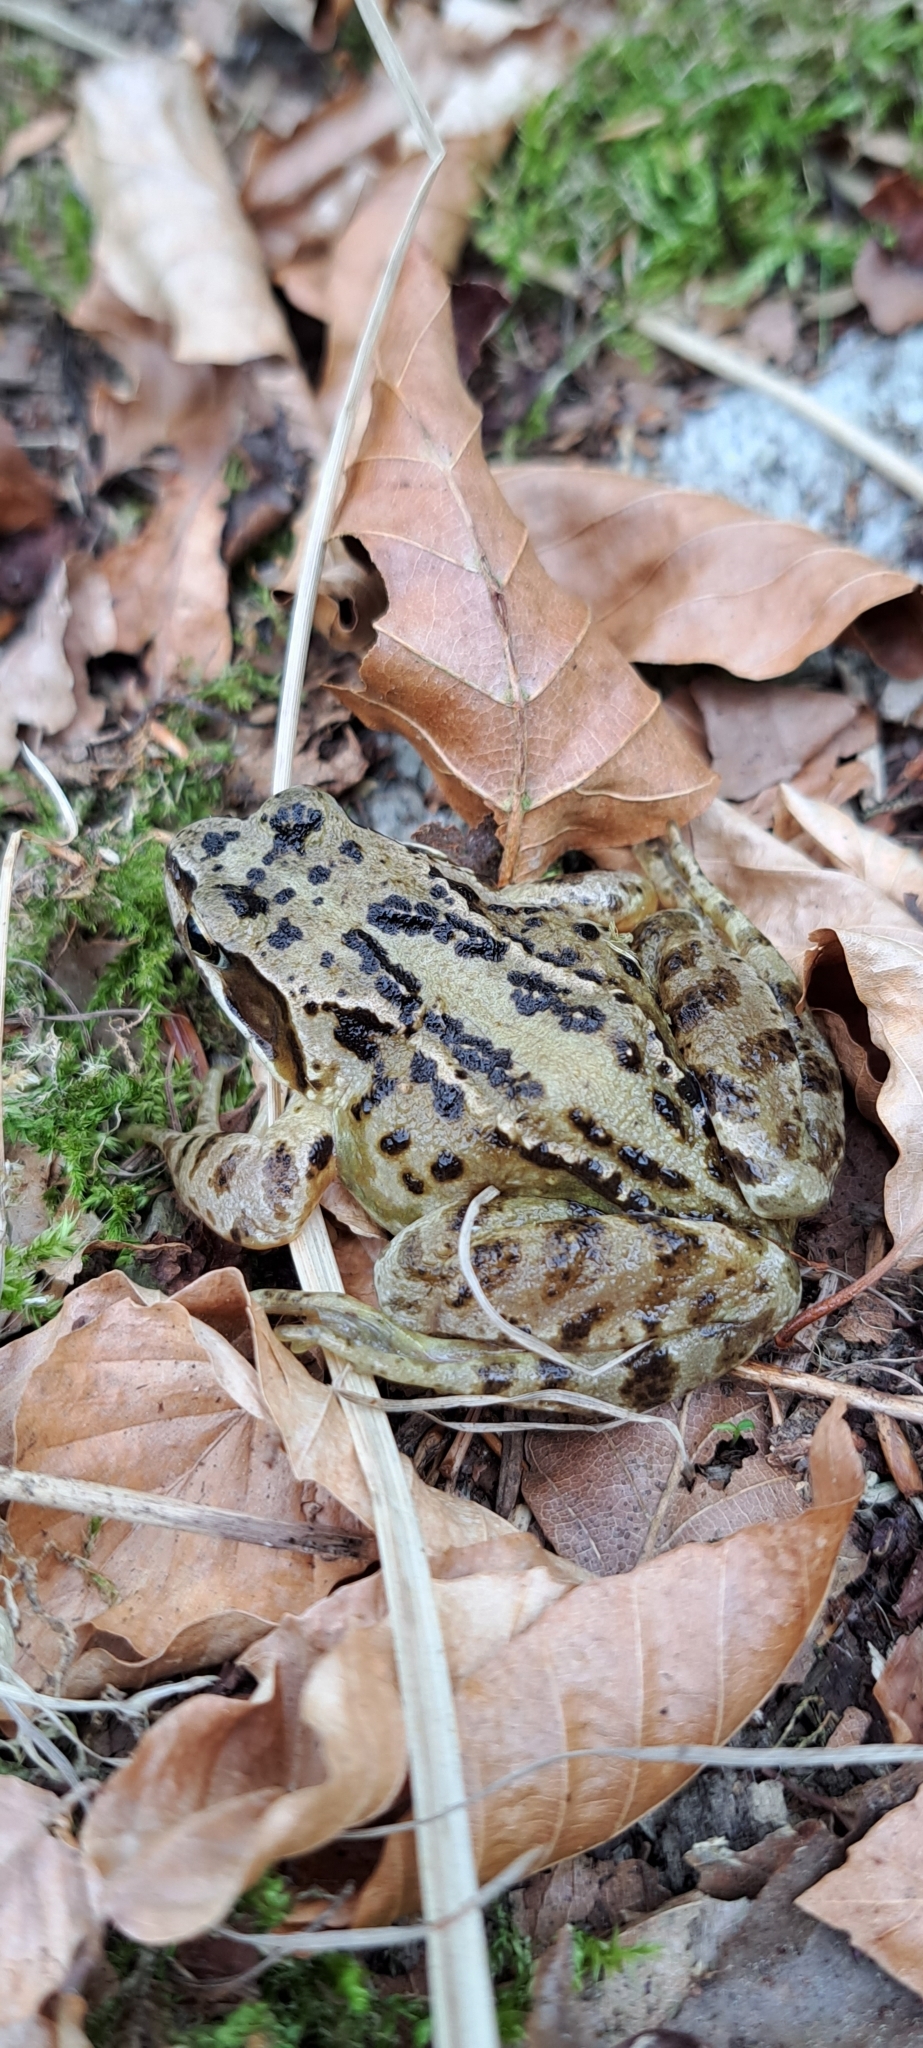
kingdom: Animalia
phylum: Chordata
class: Amphibia
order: Anura
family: Ranidae
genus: Rana
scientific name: Rana temporaria
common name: Common frog
